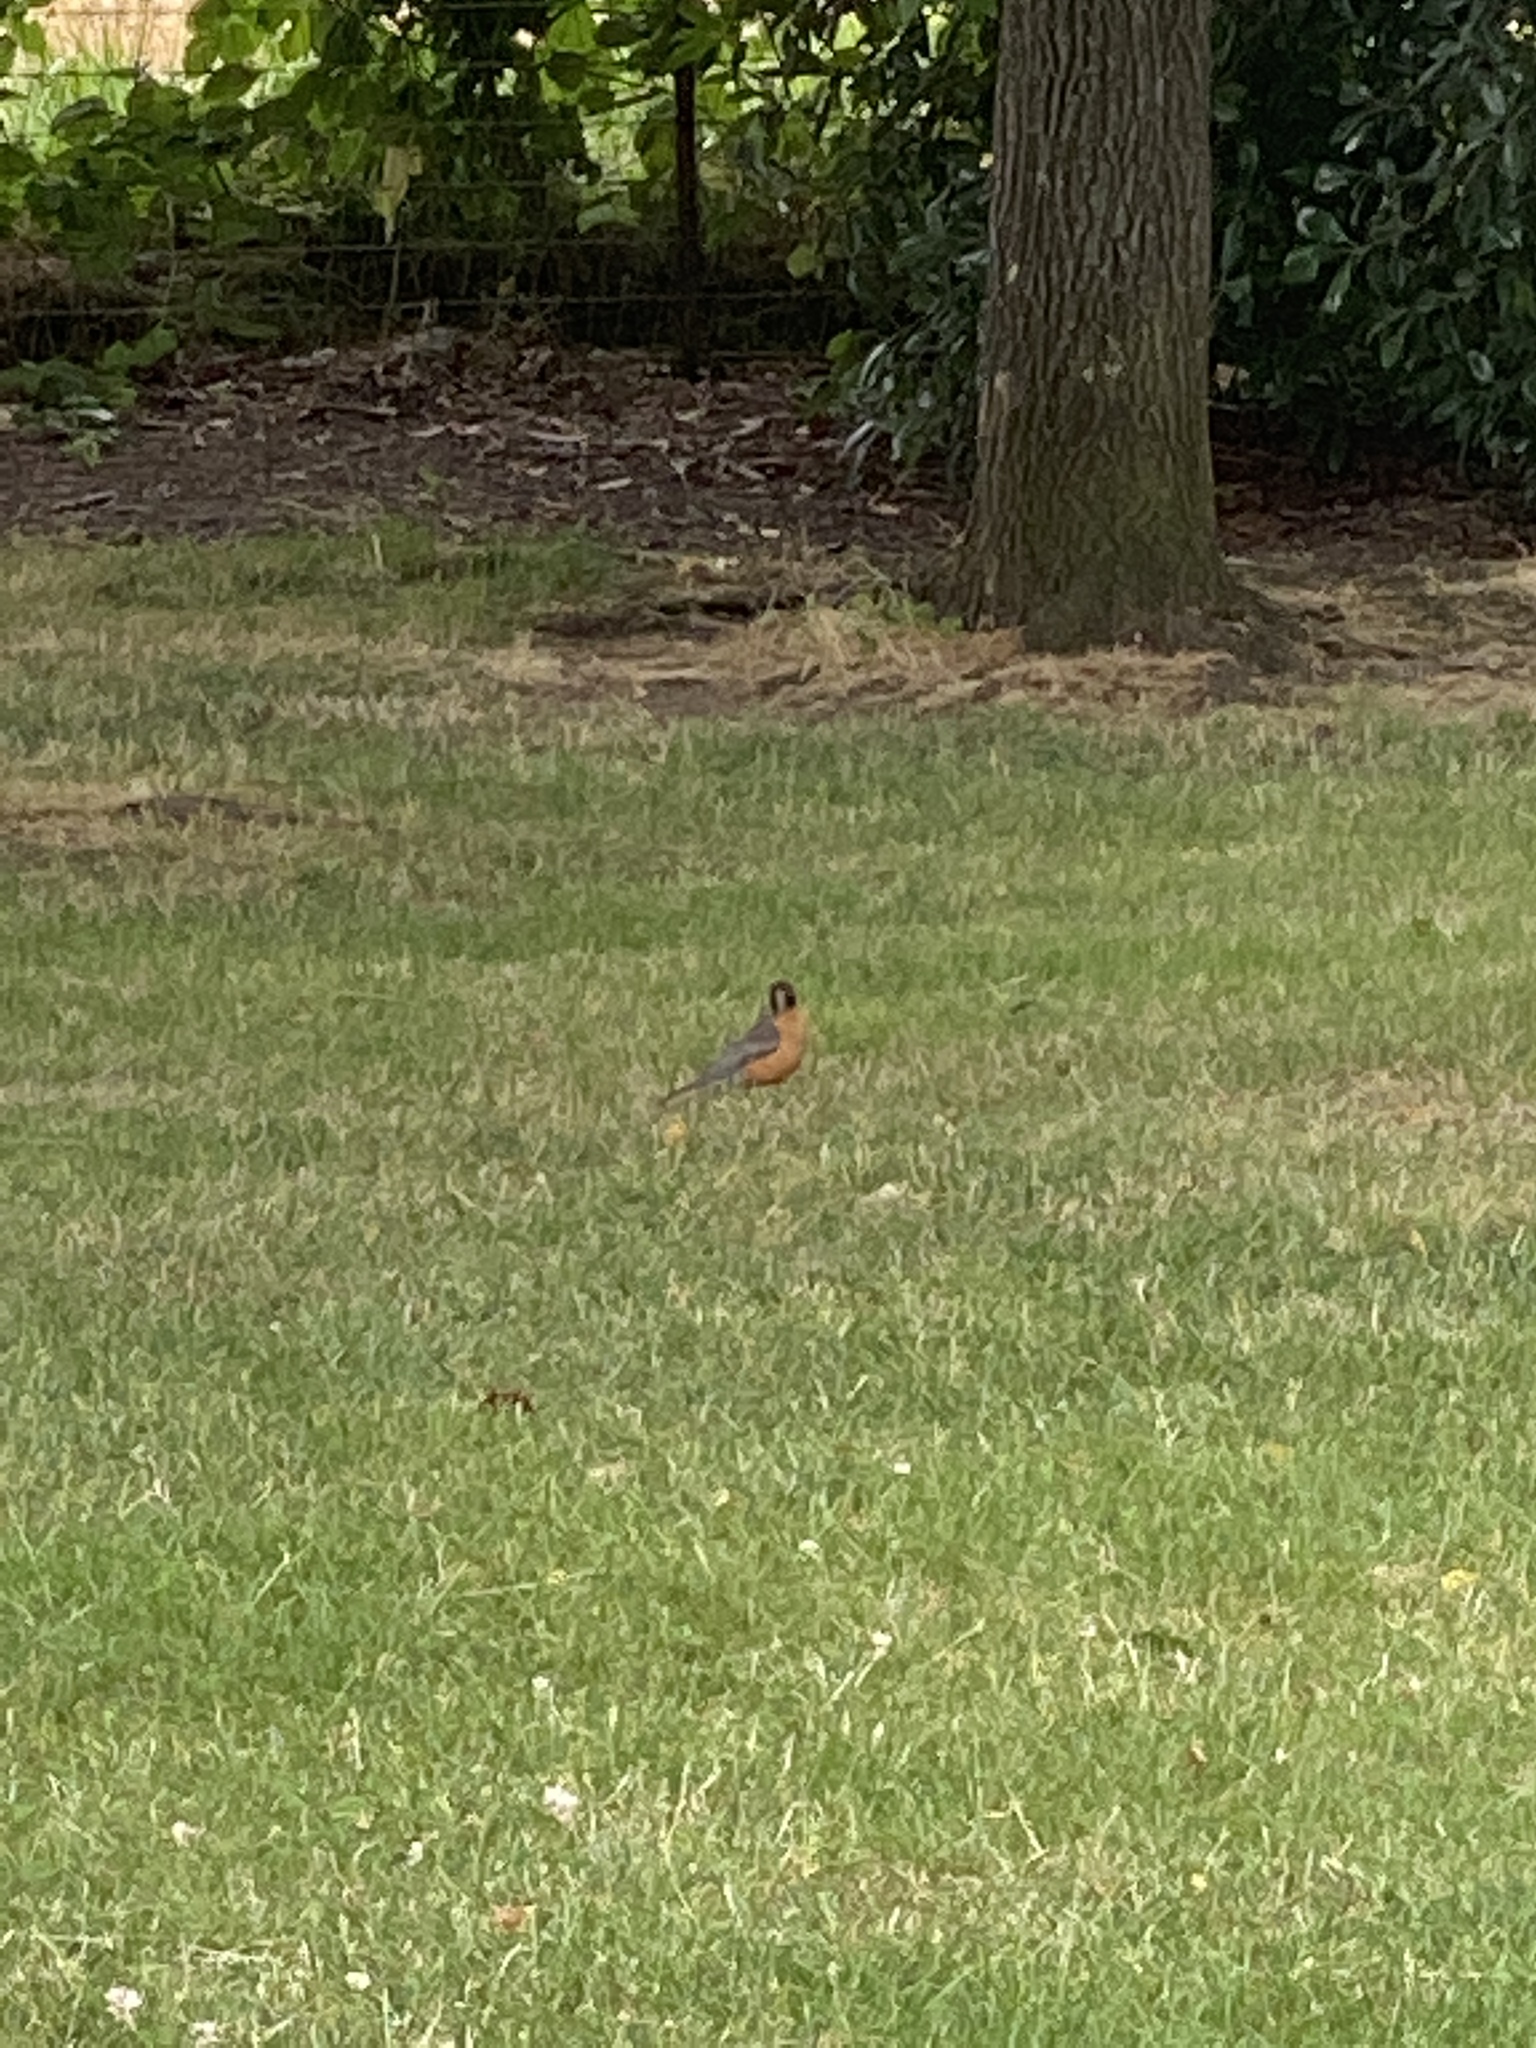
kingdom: Animalia
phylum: Chordata
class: Aves
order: Passeriformes
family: Turdidae
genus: Turdus
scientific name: Turdus migratorius
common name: American robin
